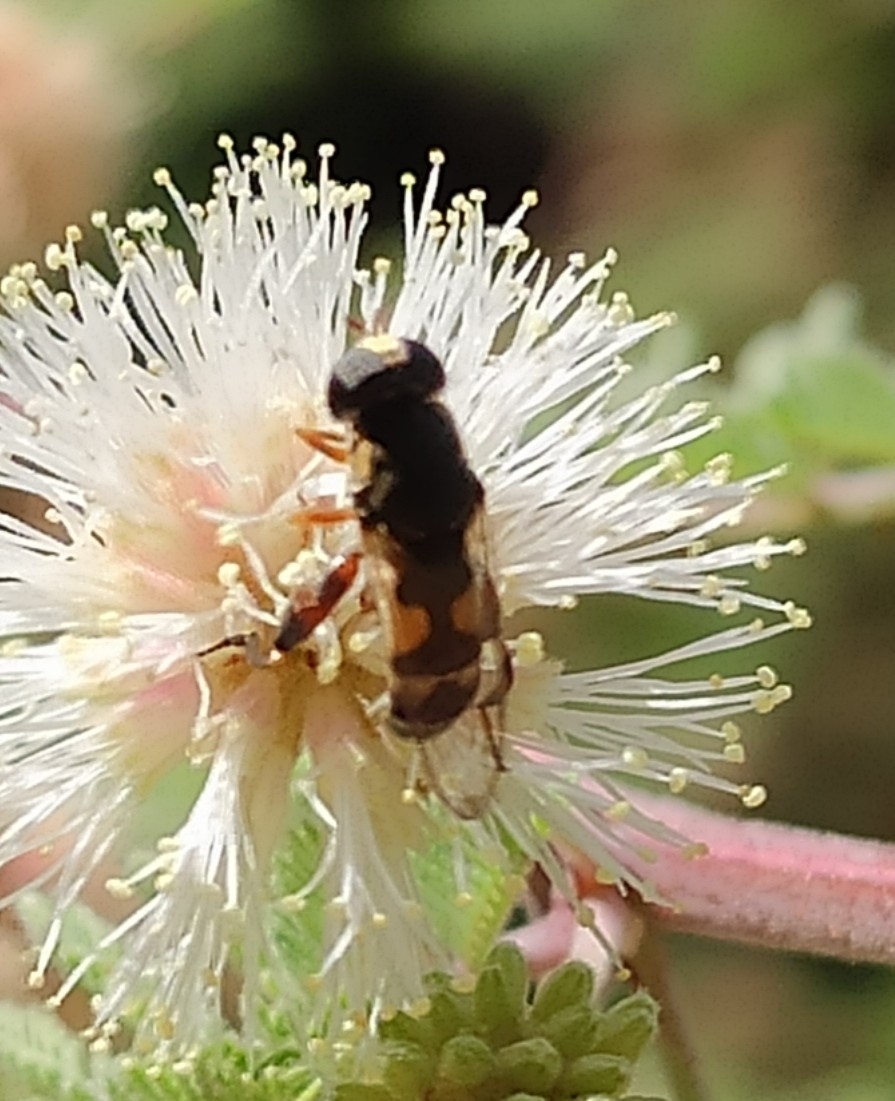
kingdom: Animalia
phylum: Arthropoda
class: Insecta
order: Diptera
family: Syrphidae
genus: Syritta
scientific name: Syritta pipiens
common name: Hover fly
